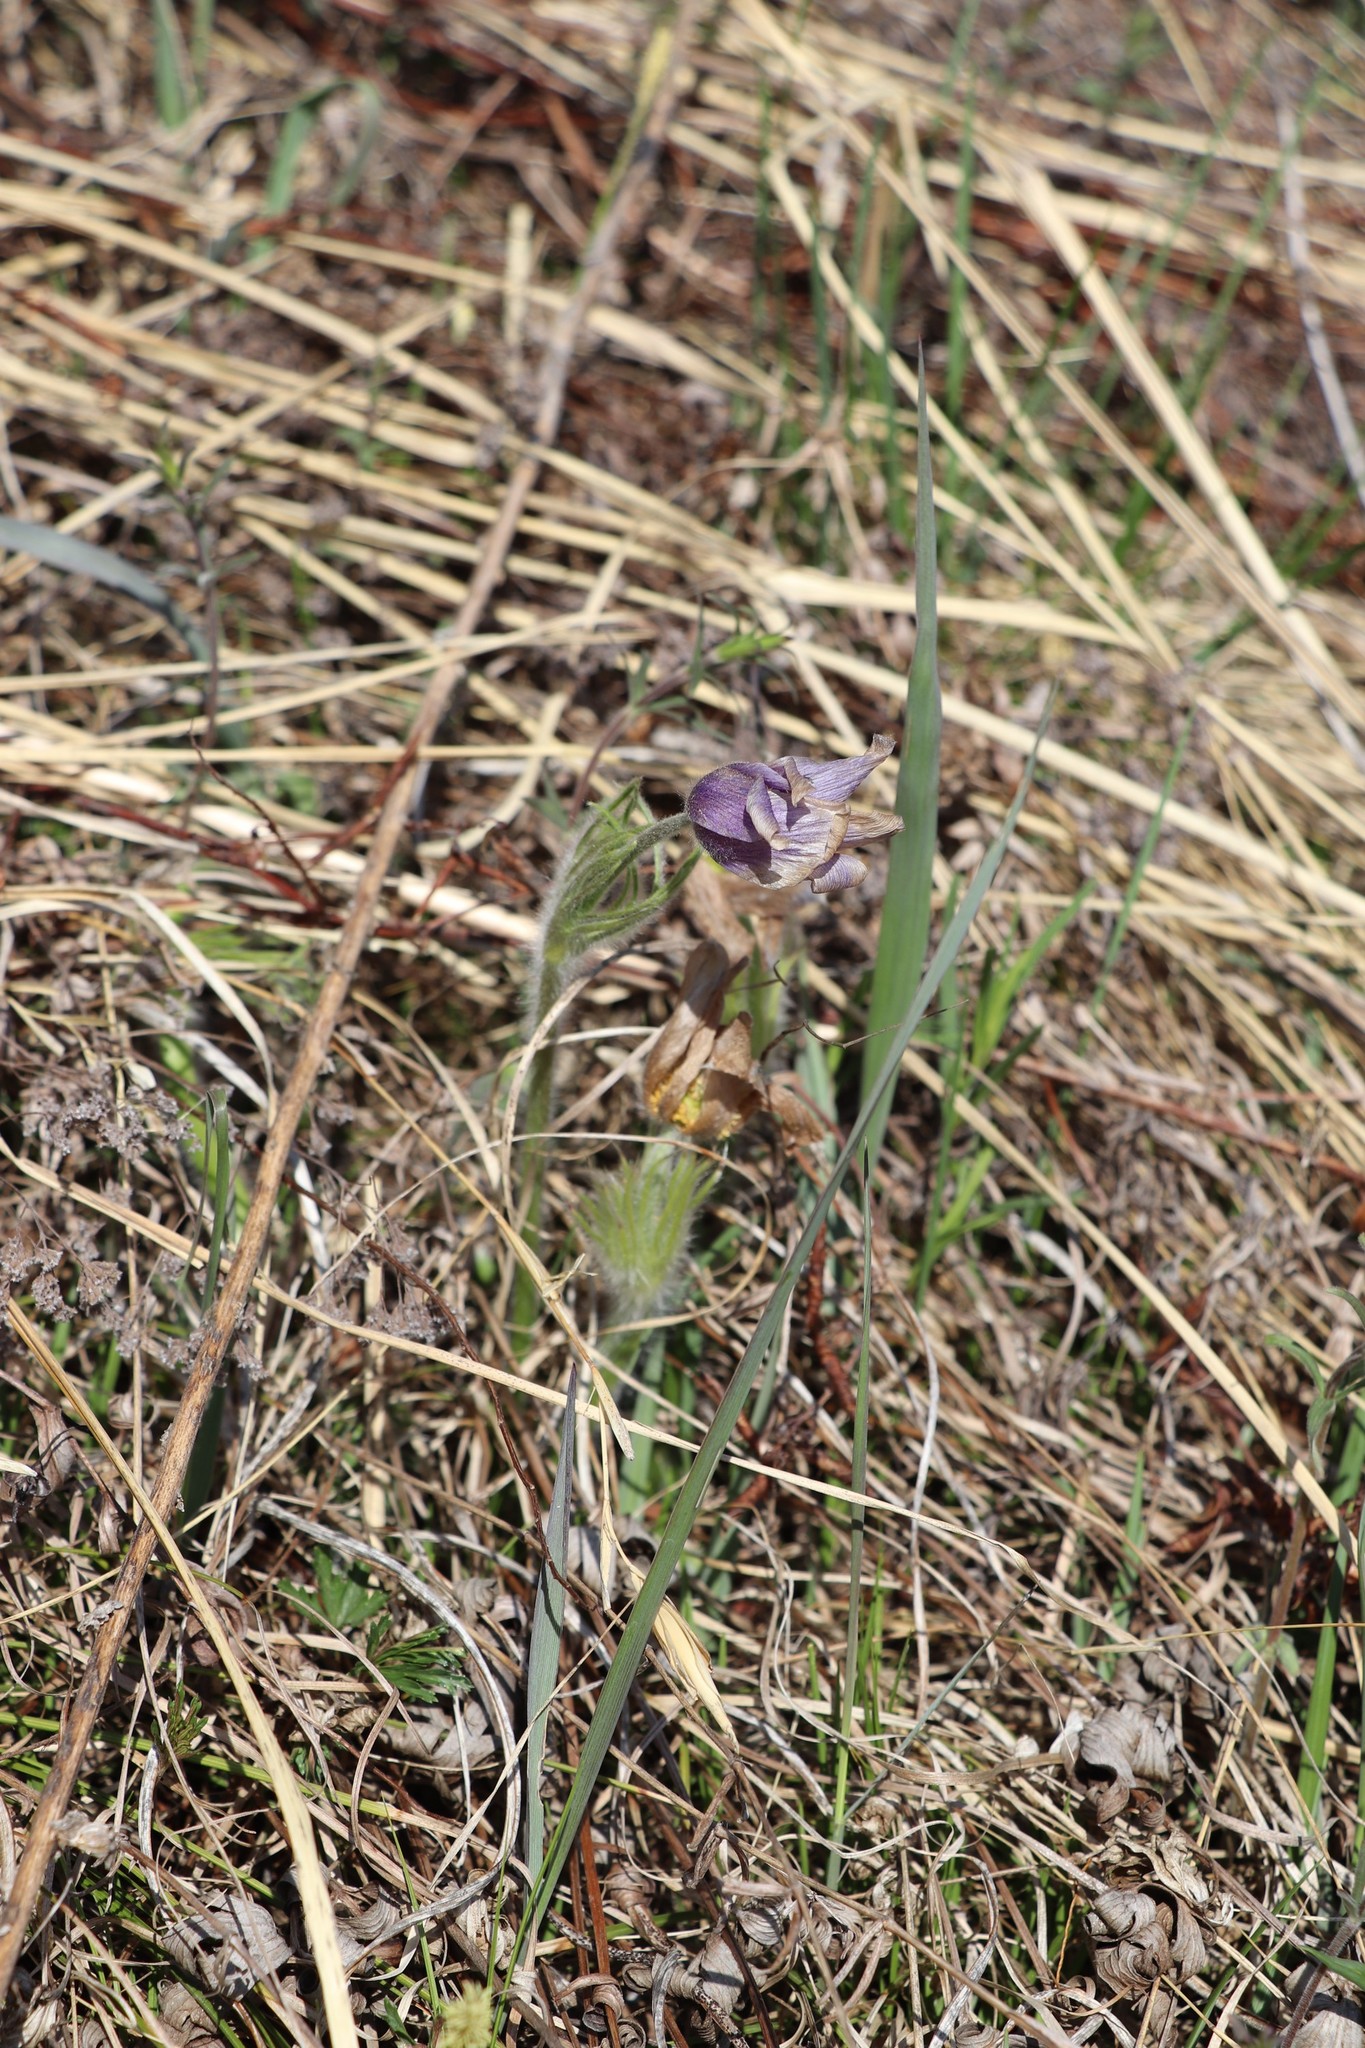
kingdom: Plantae
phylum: Tracheophyta
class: Magnoliopsida
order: Ranunculales
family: Ranunculaceae
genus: Pulsatilla
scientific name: Pulsatilla patens
